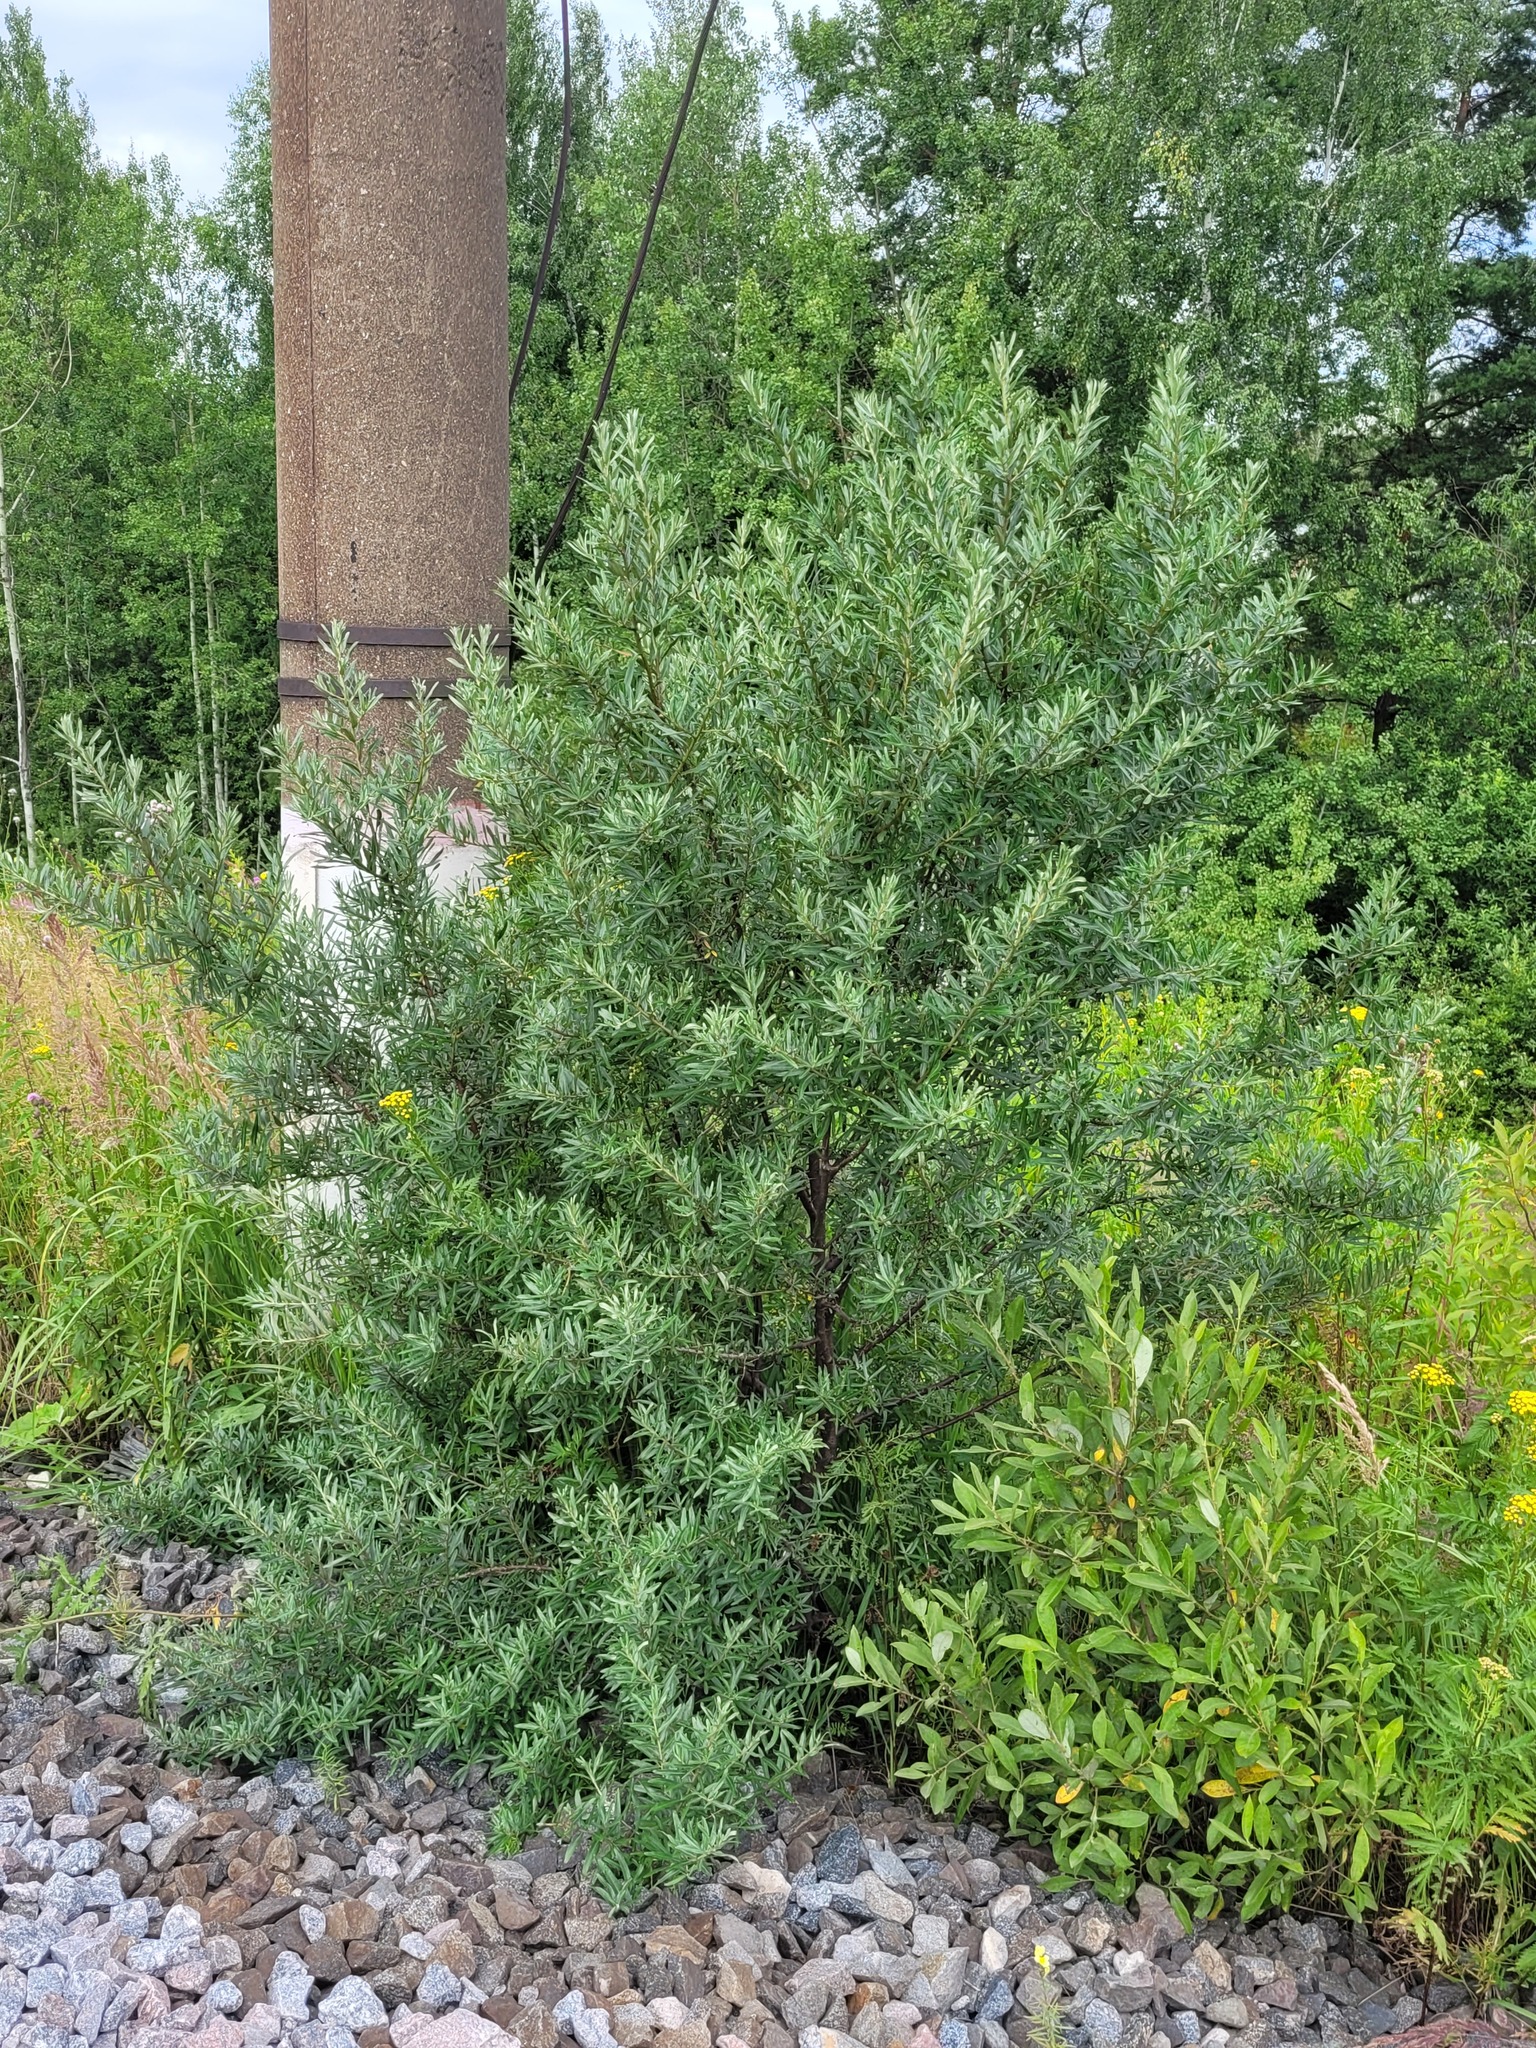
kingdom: Plantae
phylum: Tracheophyta
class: Magnoliopsida
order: Rosales
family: Elaeagnaceae
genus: Hippophae
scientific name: Hippophae rhamnoides
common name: Sea-buckthorn
